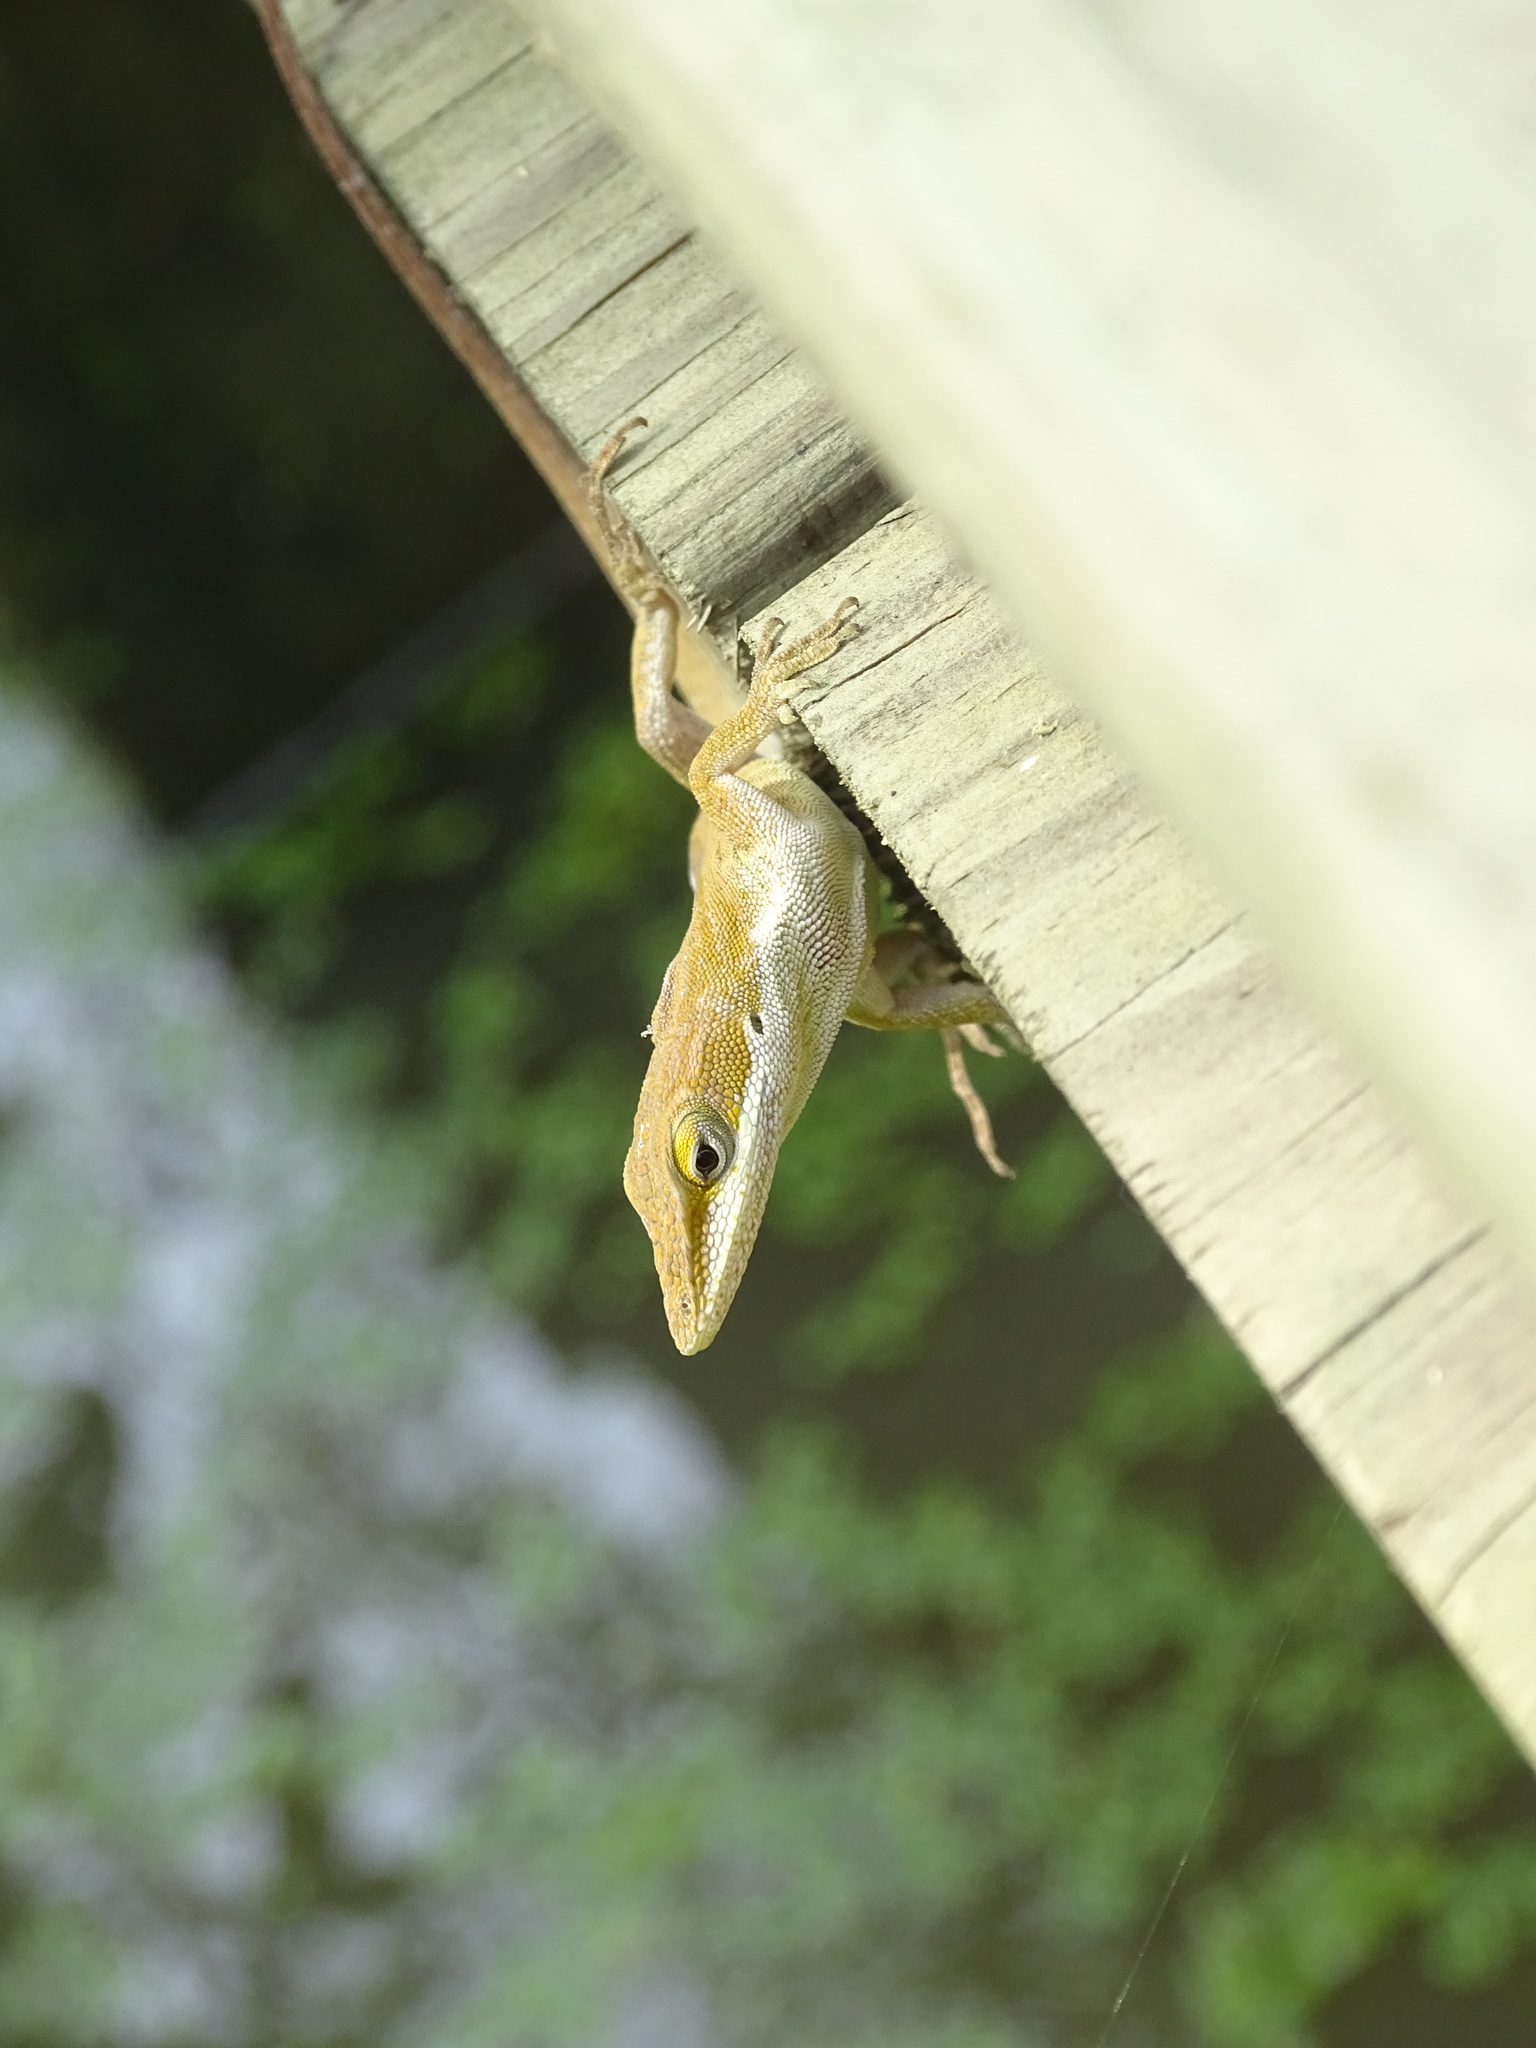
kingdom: Animalia
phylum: Chordata
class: Squamata
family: Dactyloidae
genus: Anolis
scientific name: Anolis carolinensis
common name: Green anole
